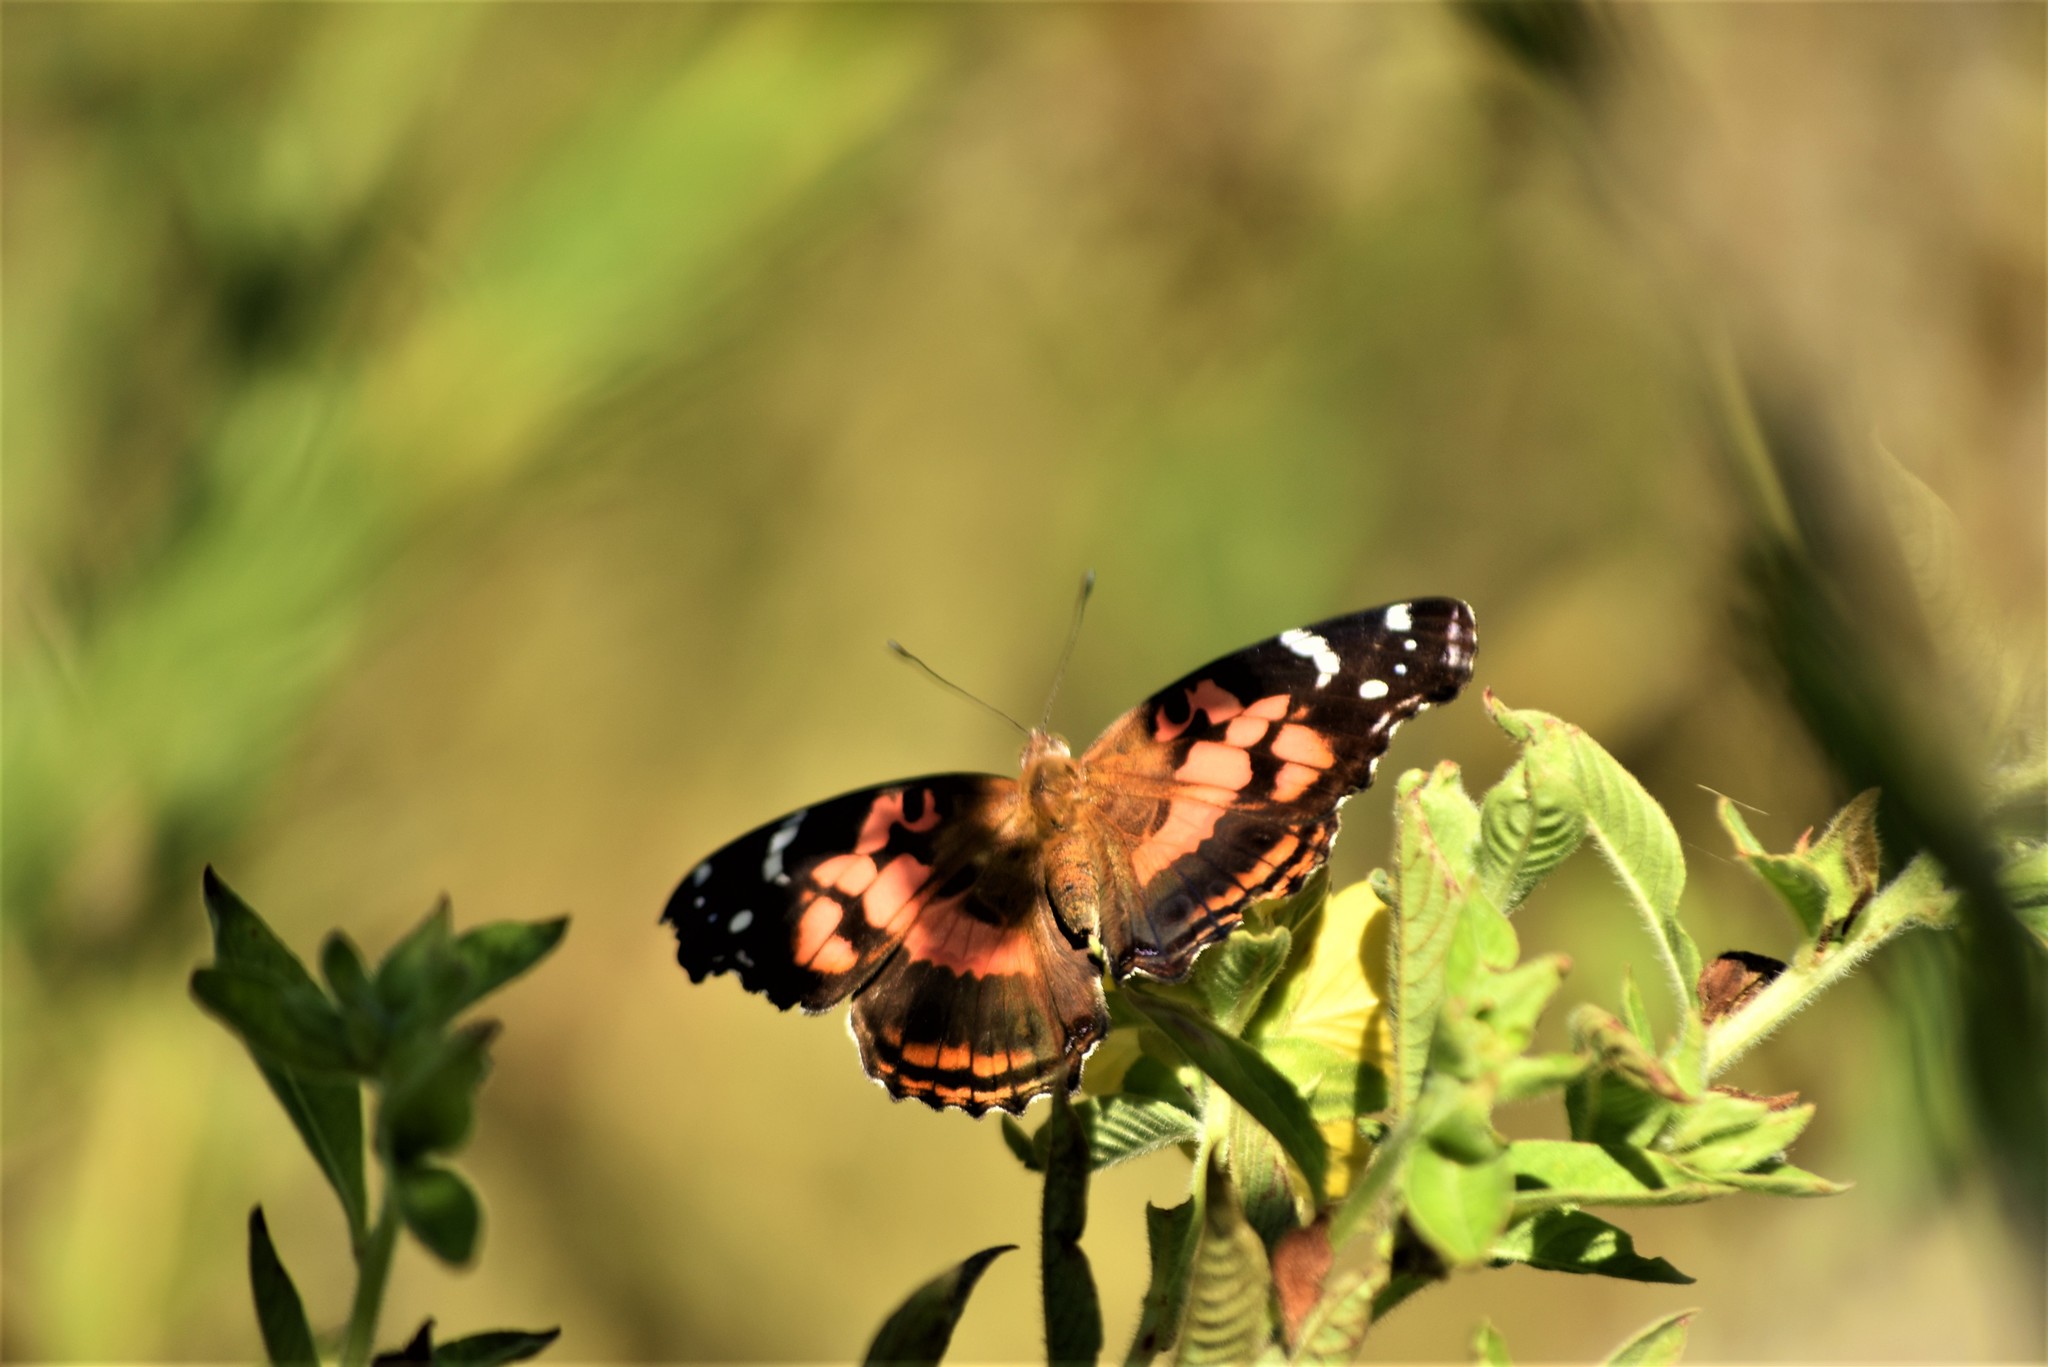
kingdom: Animalia
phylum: Arthropoda
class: Insecta
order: Lepidoptera
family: Nymphalidae
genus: Vanessa
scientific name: Vanessa myrinna
